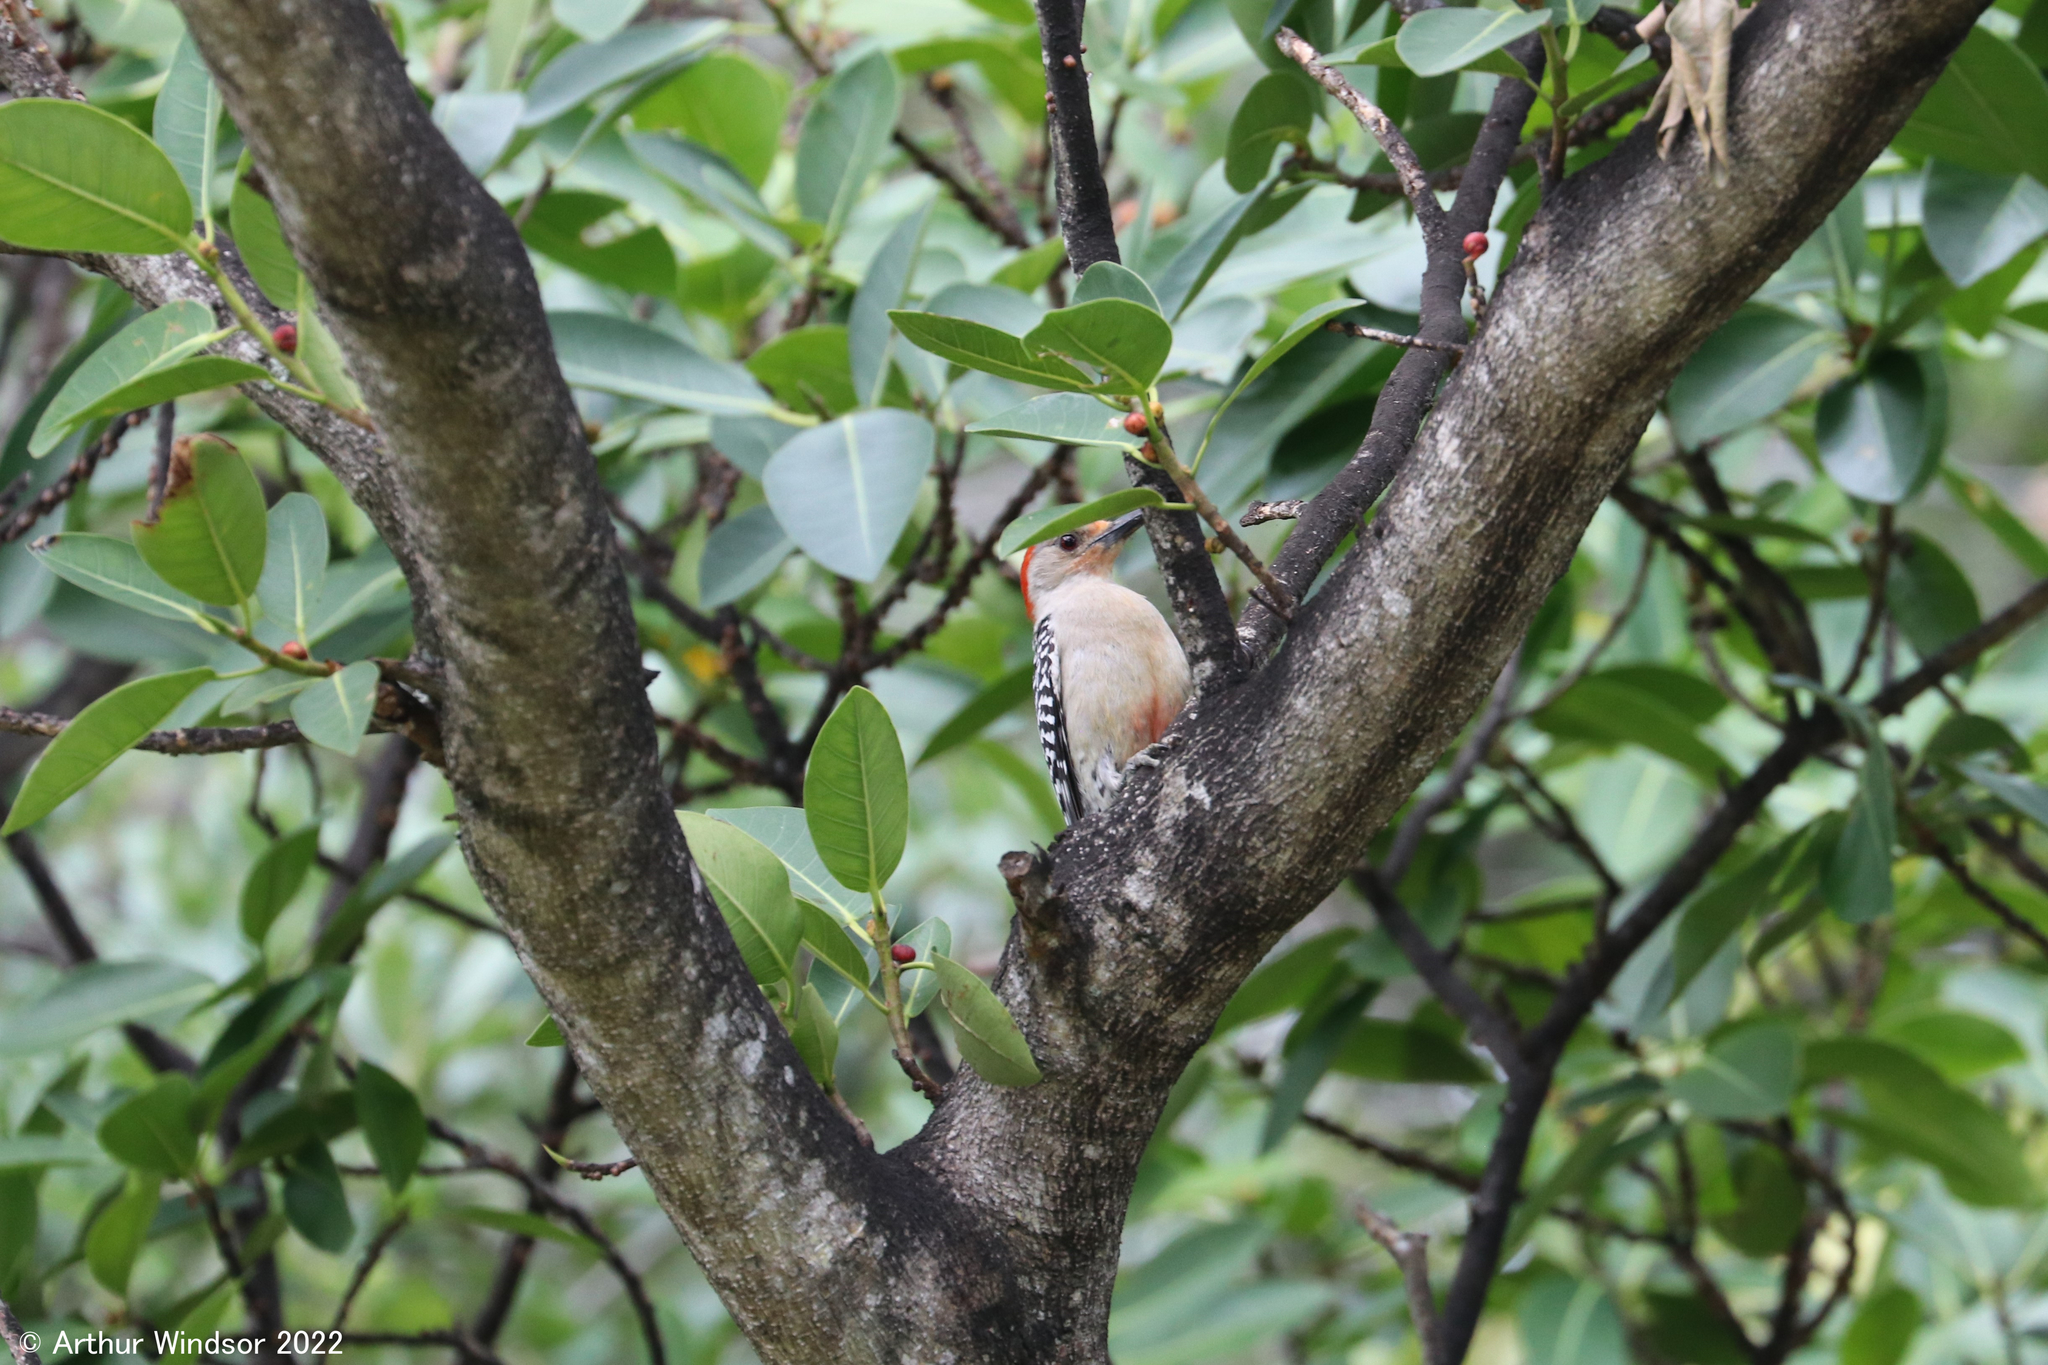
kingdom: Animalia
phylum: Chordata
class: Aves
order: Piciformes
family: Picidae
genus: Melanerpes
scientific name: Melanerpes carolinus
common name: Red-bellied woodpecker
